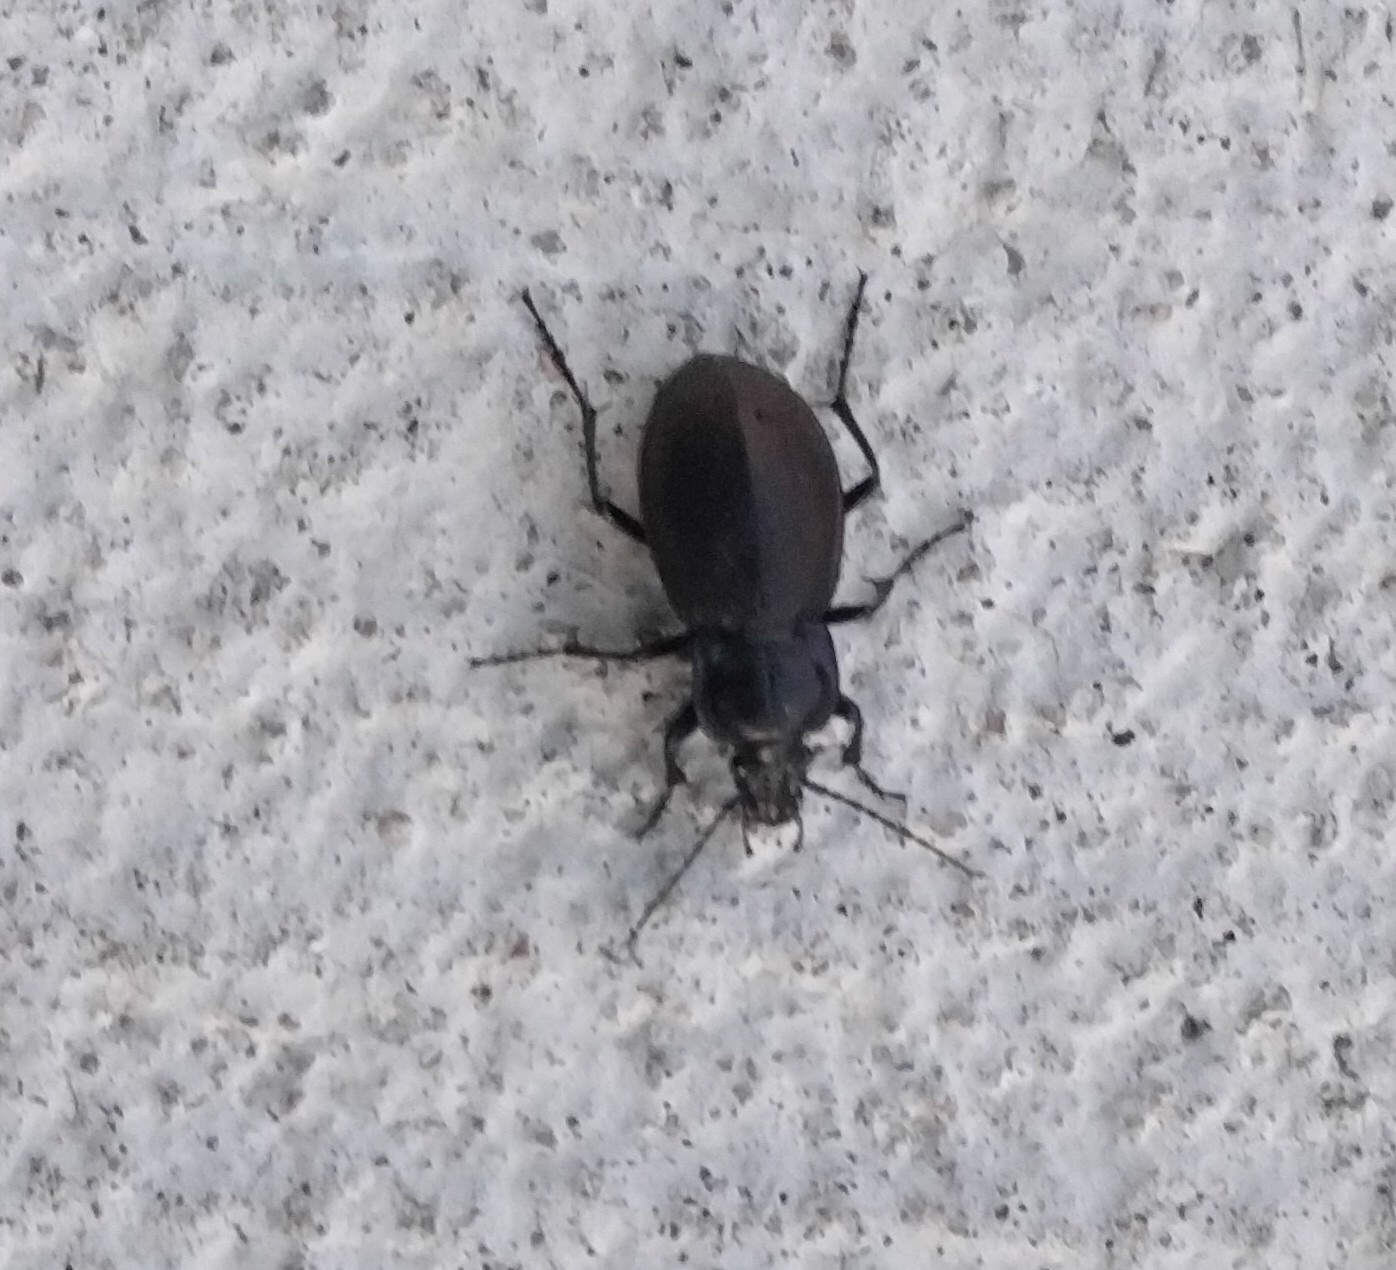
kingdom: Animalia
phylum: Arthropoda
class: Insecta
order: Coleoptera
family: Carabidae
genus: Carabus
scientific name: Carabus nemoralis
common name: European ground beetle
